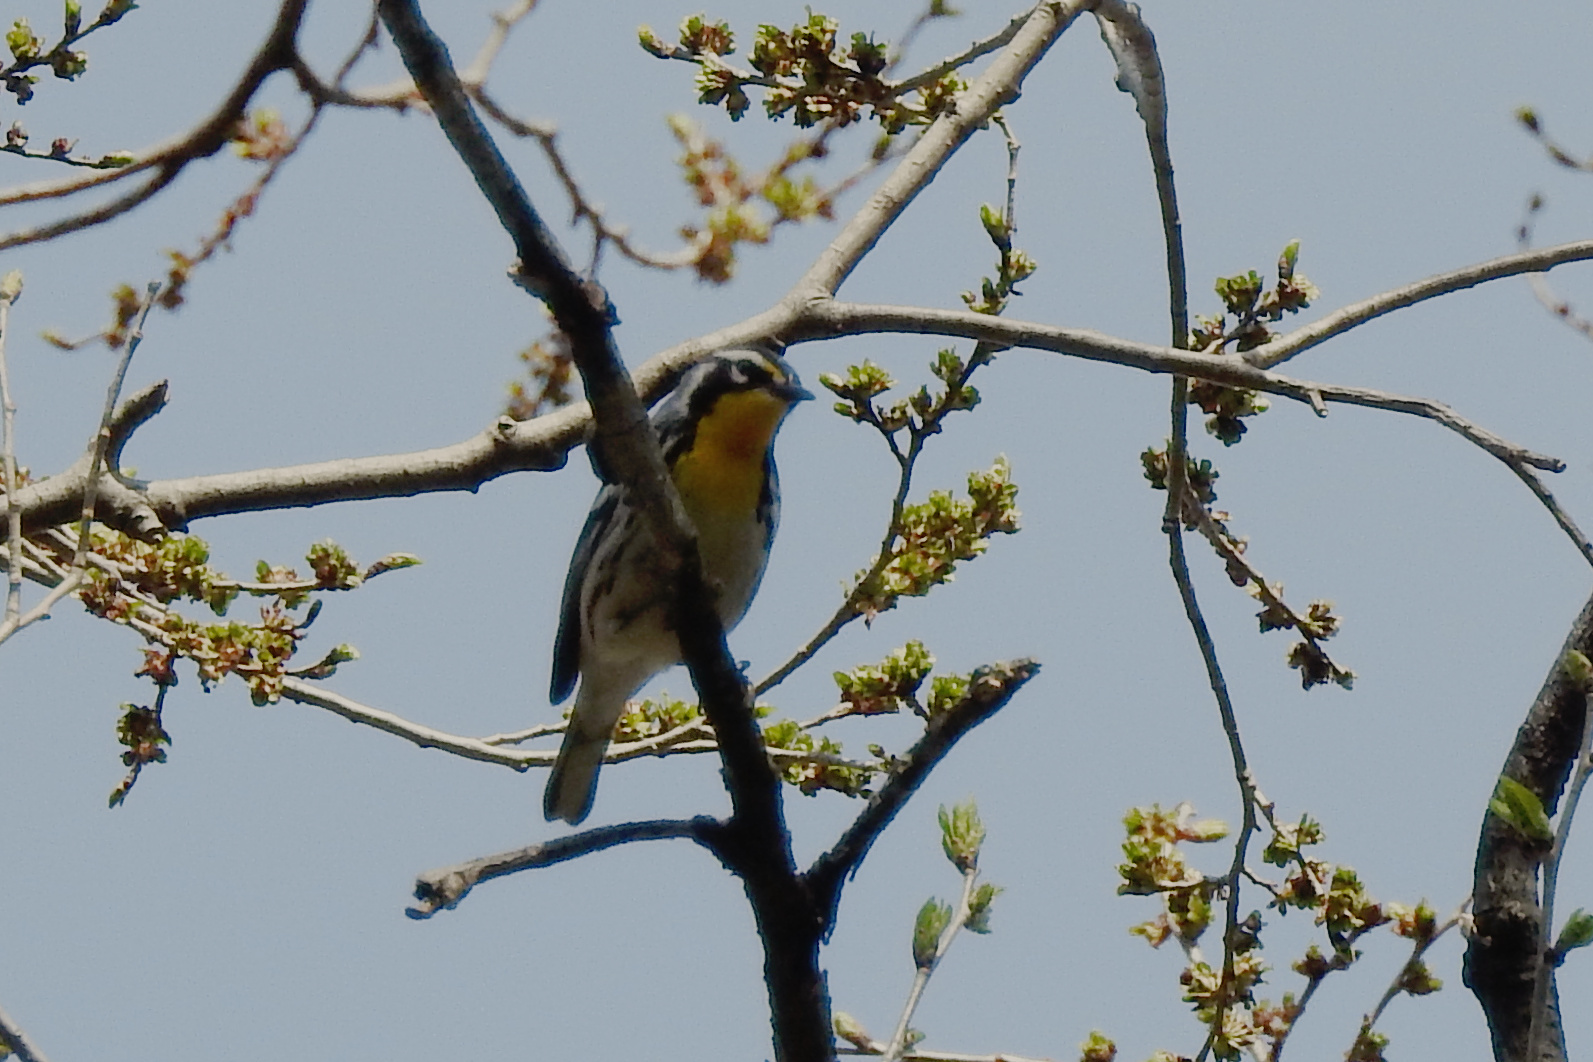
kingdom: Animalia
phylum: Chordata
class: Aves
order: Passeriformes
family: Parulidae
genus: Setophaga
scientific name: Setophaga dominica
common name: Yellow-throated warbler
